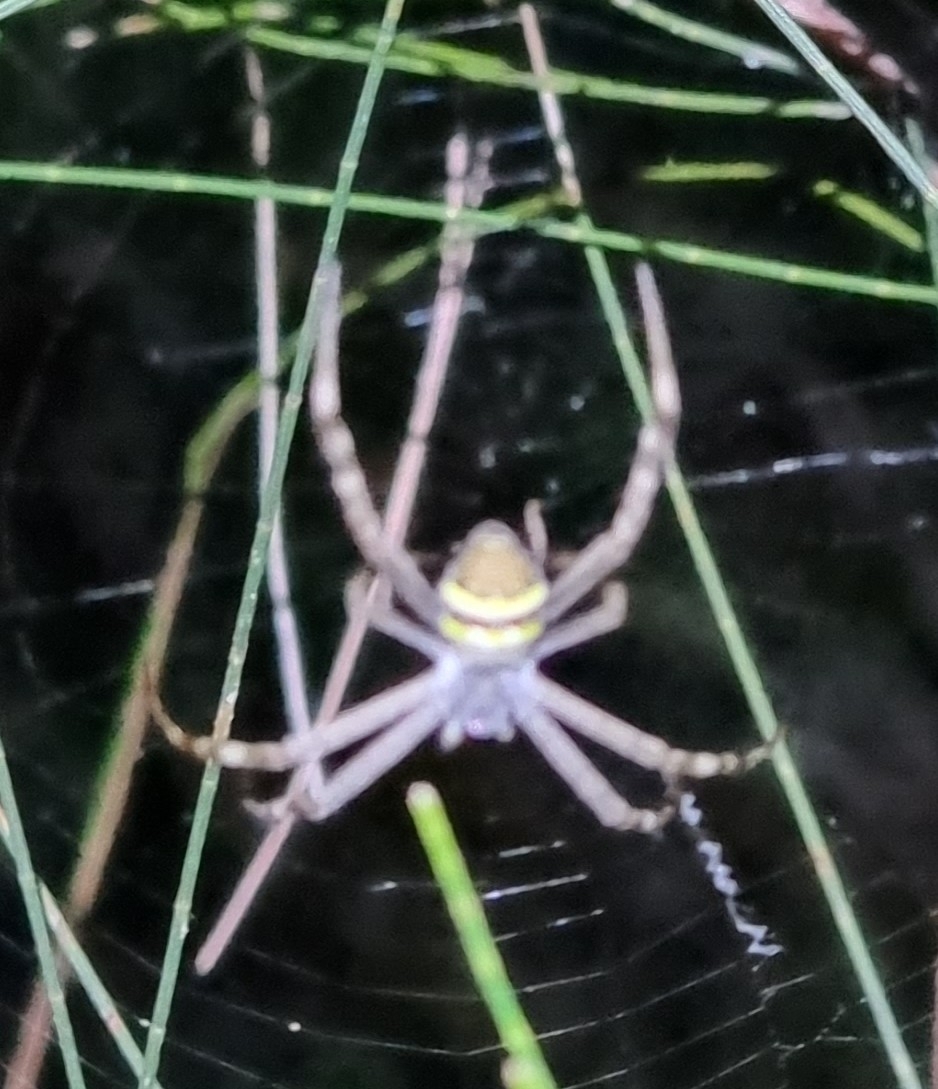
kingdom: Animalia
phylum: Arthropoda
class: Arachnida
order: Araneae
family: Araneidae
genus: Argiope
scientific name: Argiope keyserlingi
